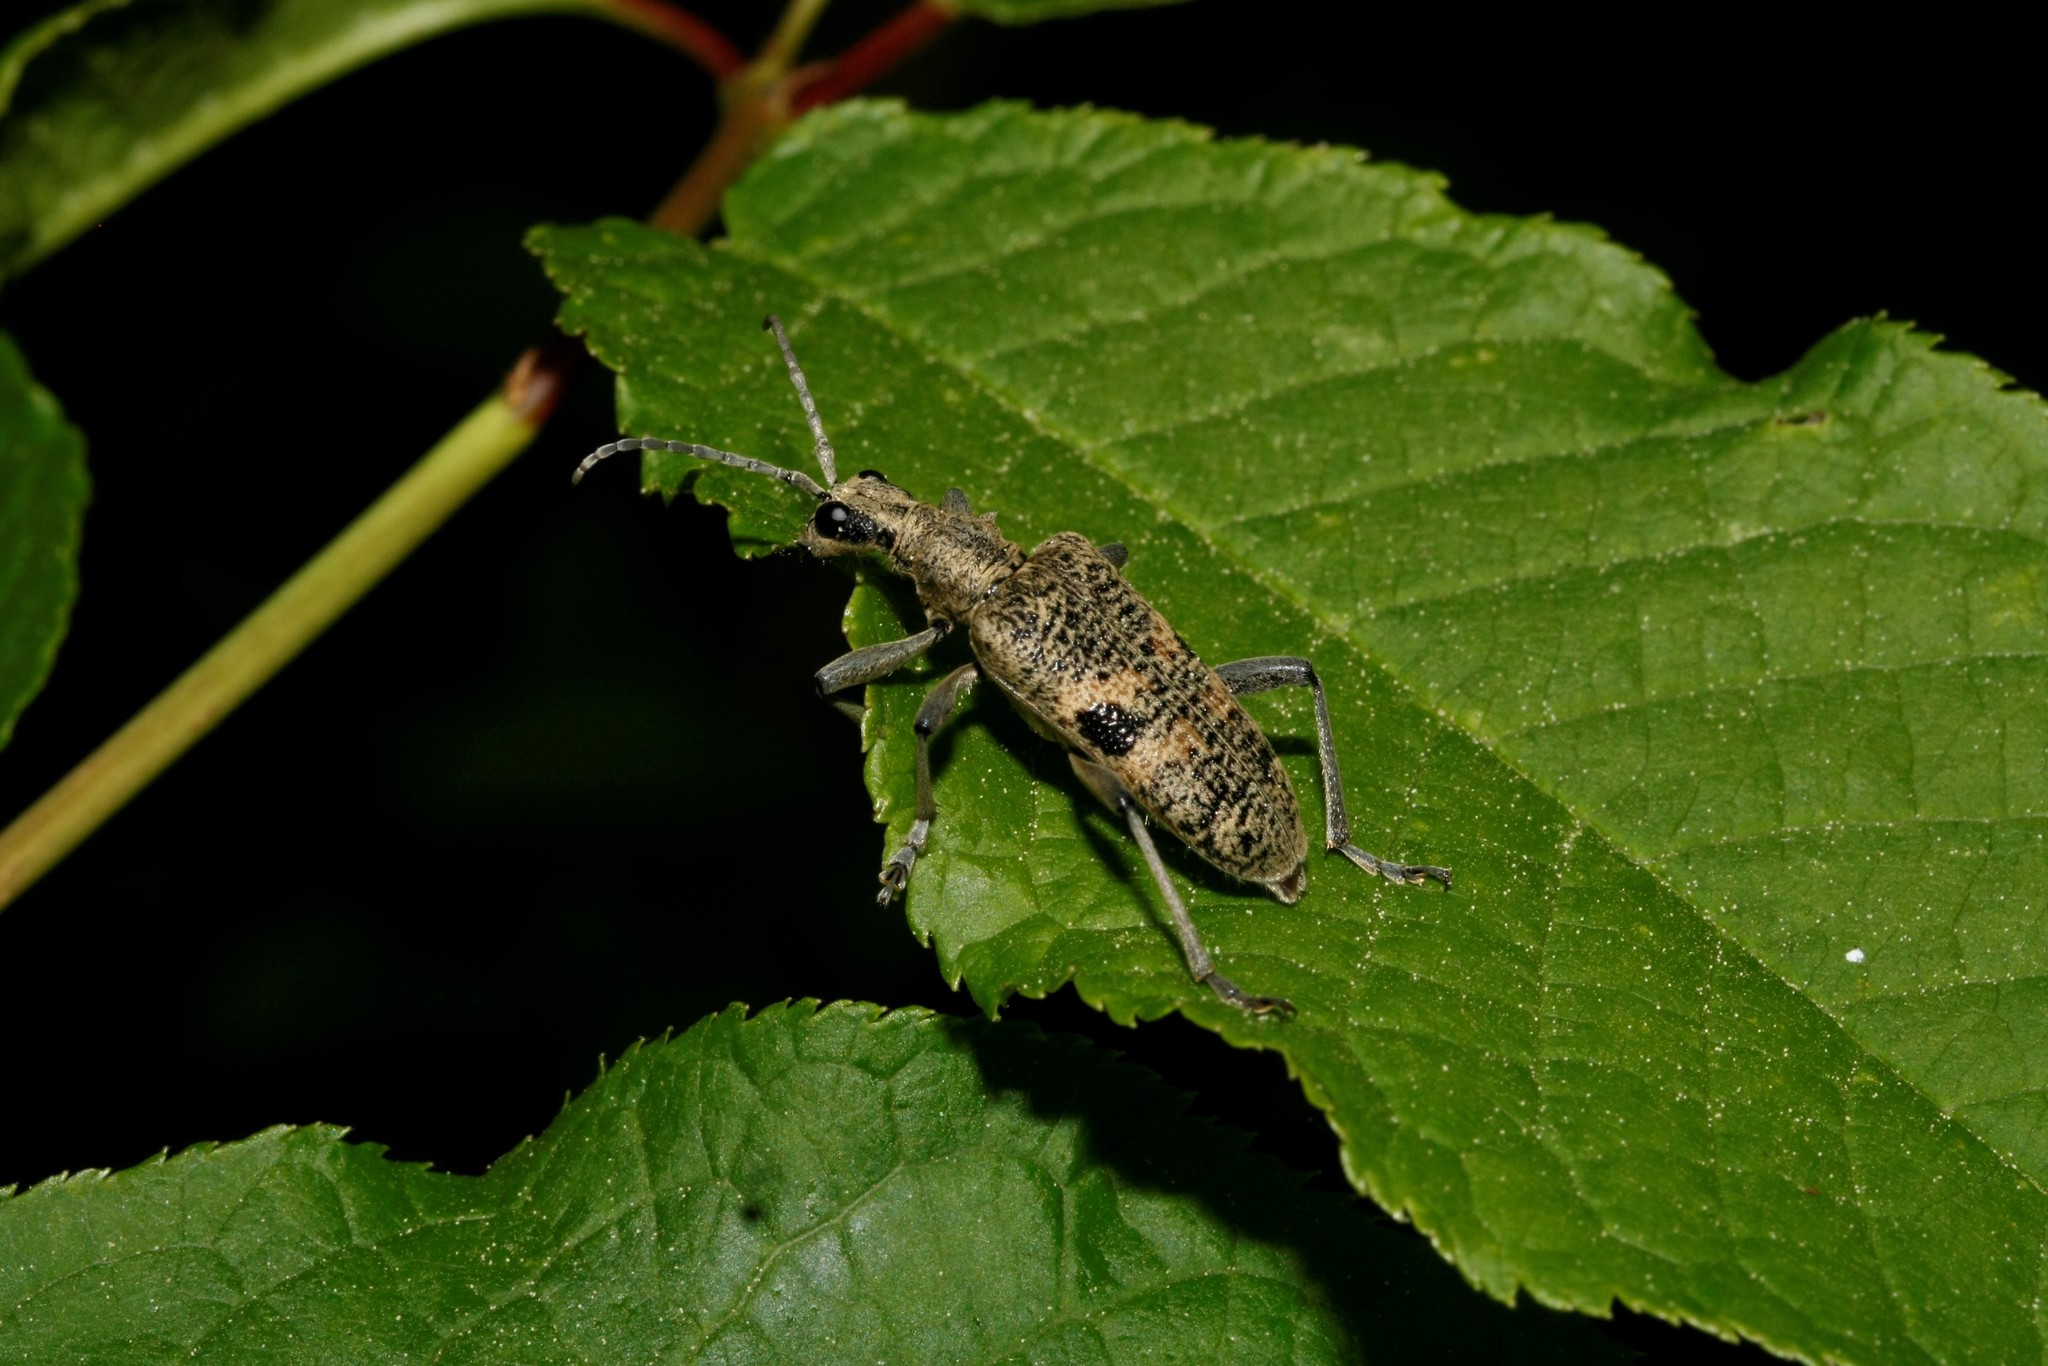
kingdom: Animalia
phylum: Arthropoda
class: Insecta
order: Coleoptera
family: Cerambycidae
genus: Rhagium
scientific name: Rhagium mordax
